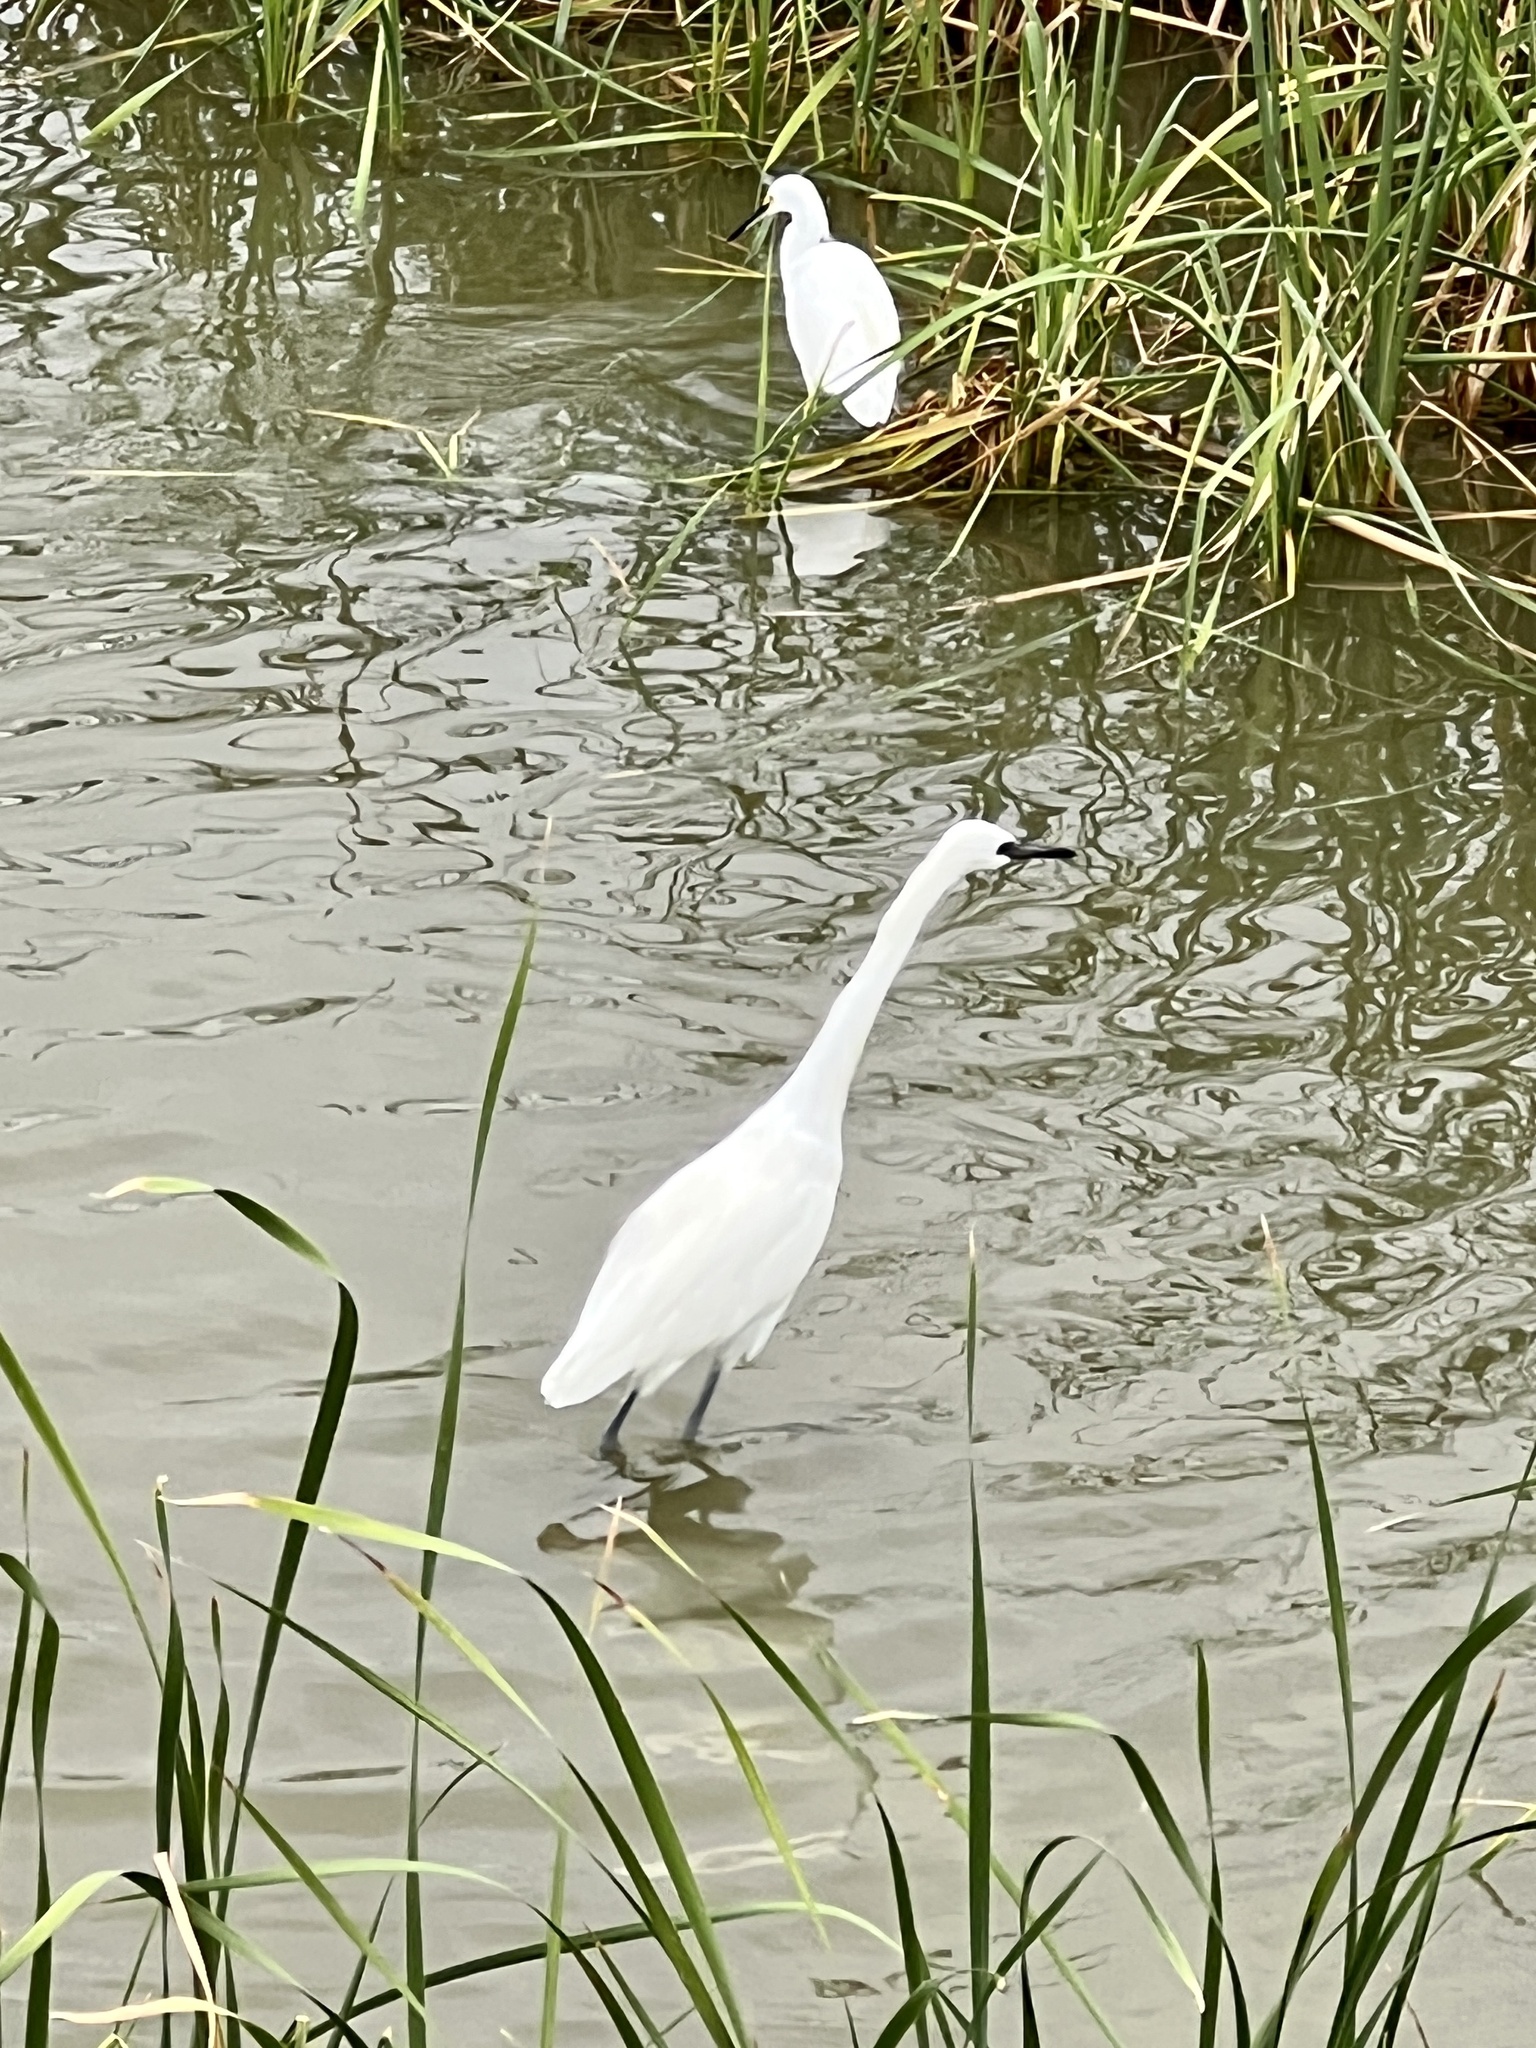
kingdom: Animalia
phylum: Chordata
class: Aves
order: Pelecaniformes
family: Ardeidae
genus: Egretta
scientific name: Egretta rufescens
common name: Reddish egret
